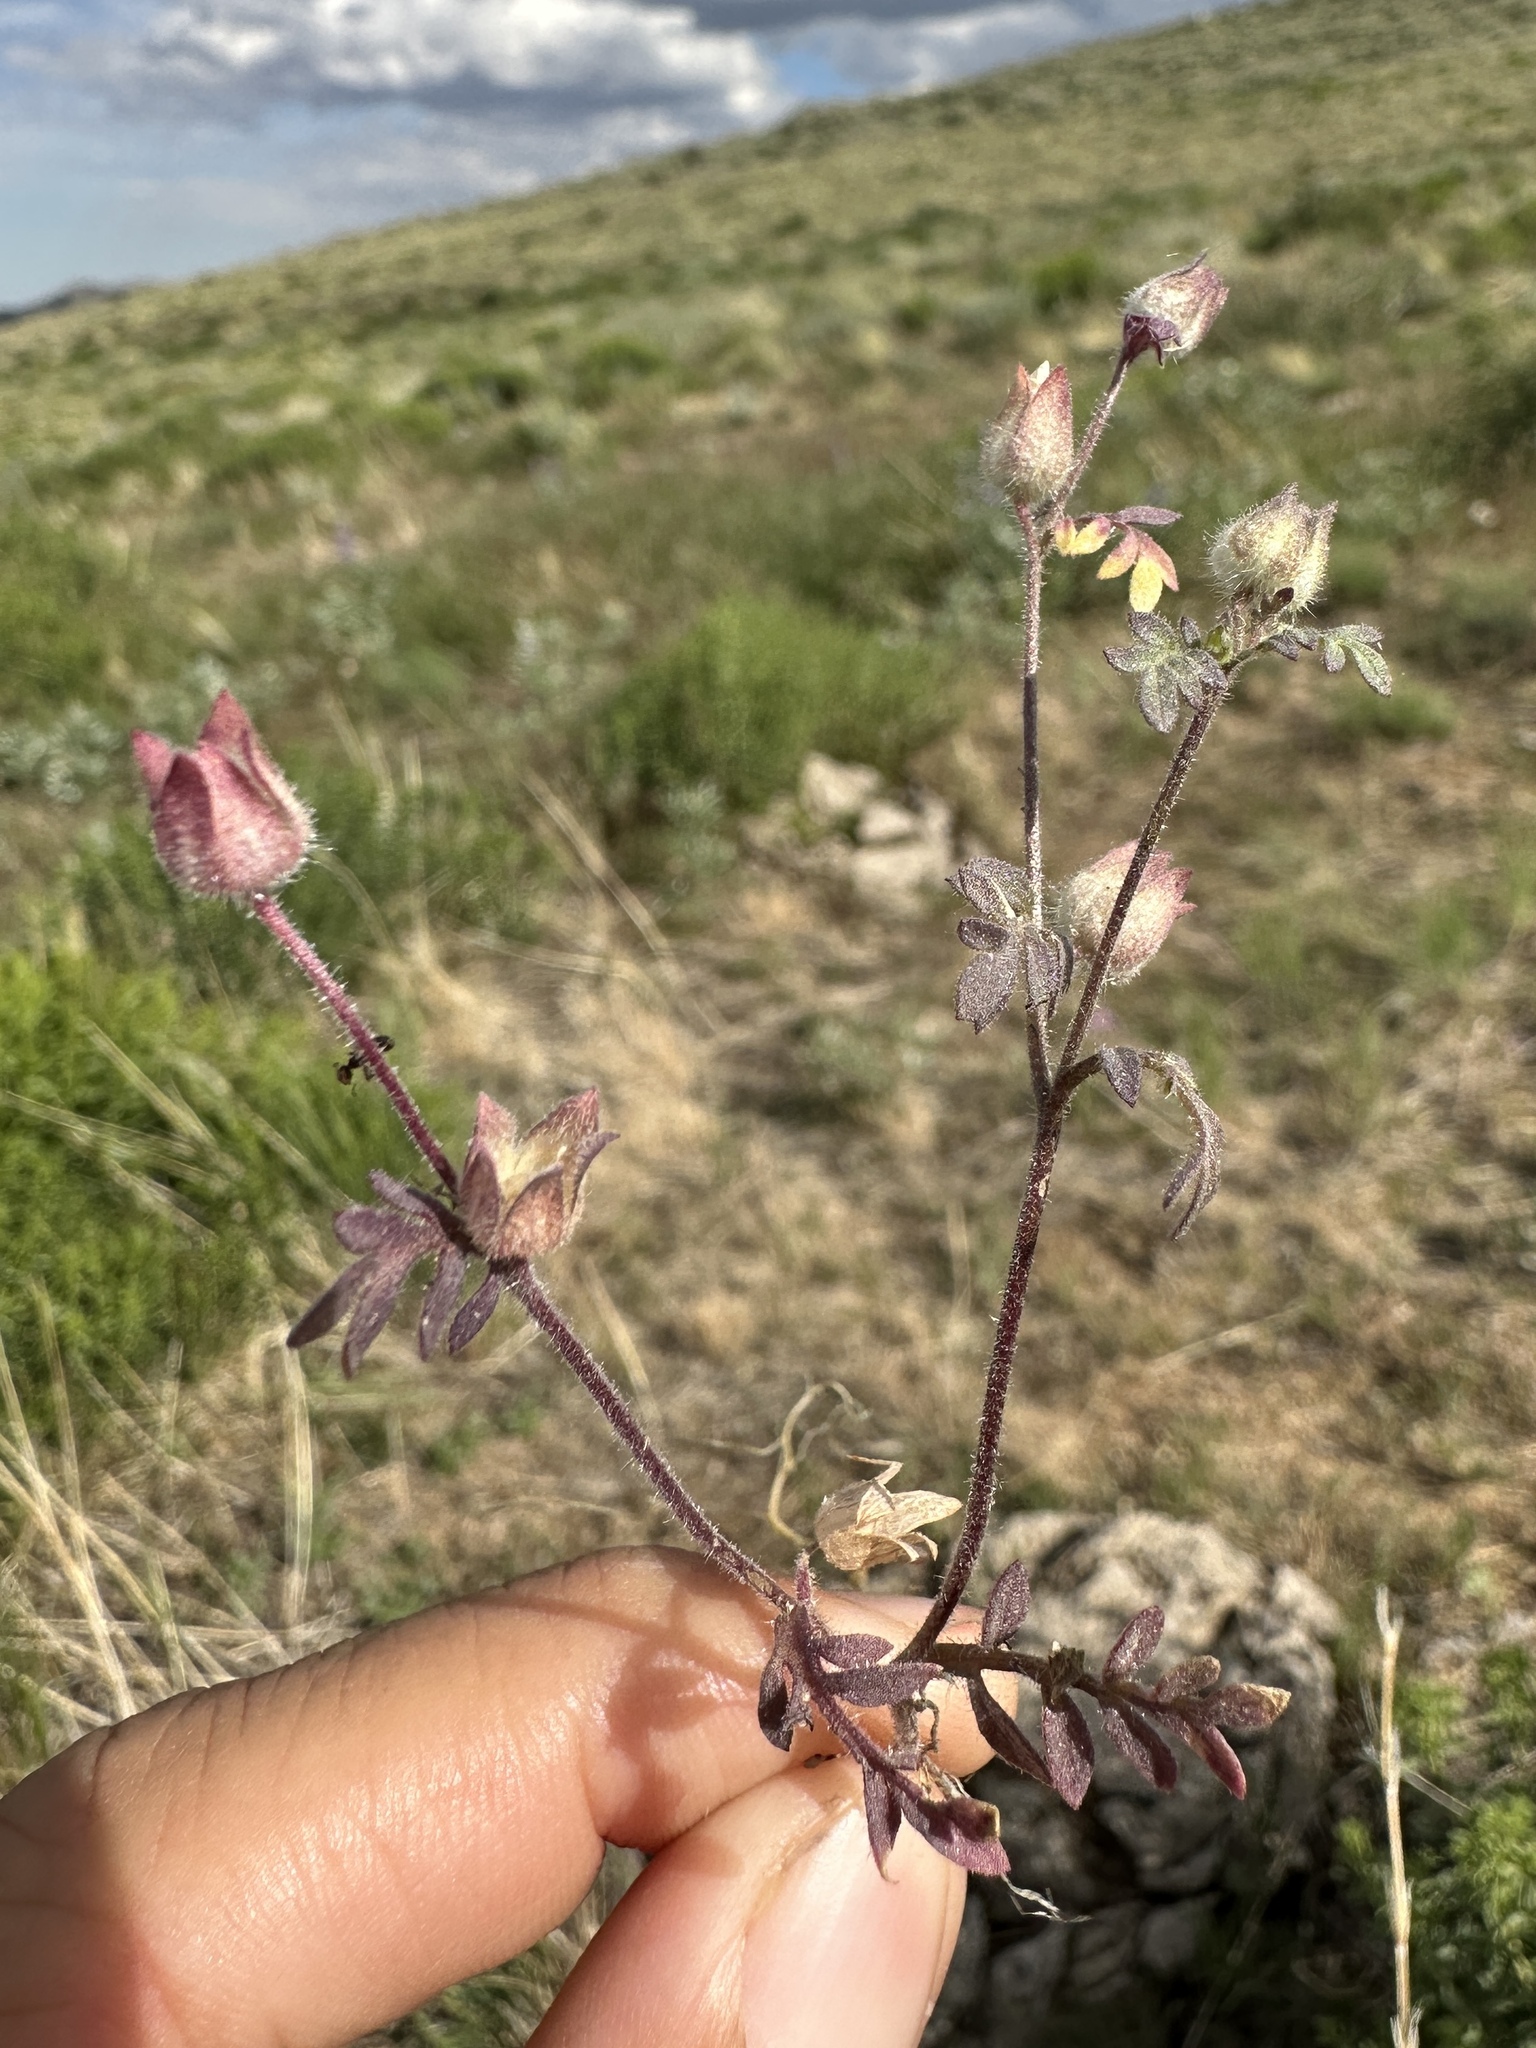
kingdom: Plantae
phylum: Tracheophyta
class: Magnoliopsida
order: Ericales
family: Polemoniaceae
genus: Polemonium
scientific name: Polemonium micranthum
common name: Annual jacob's-ladder
